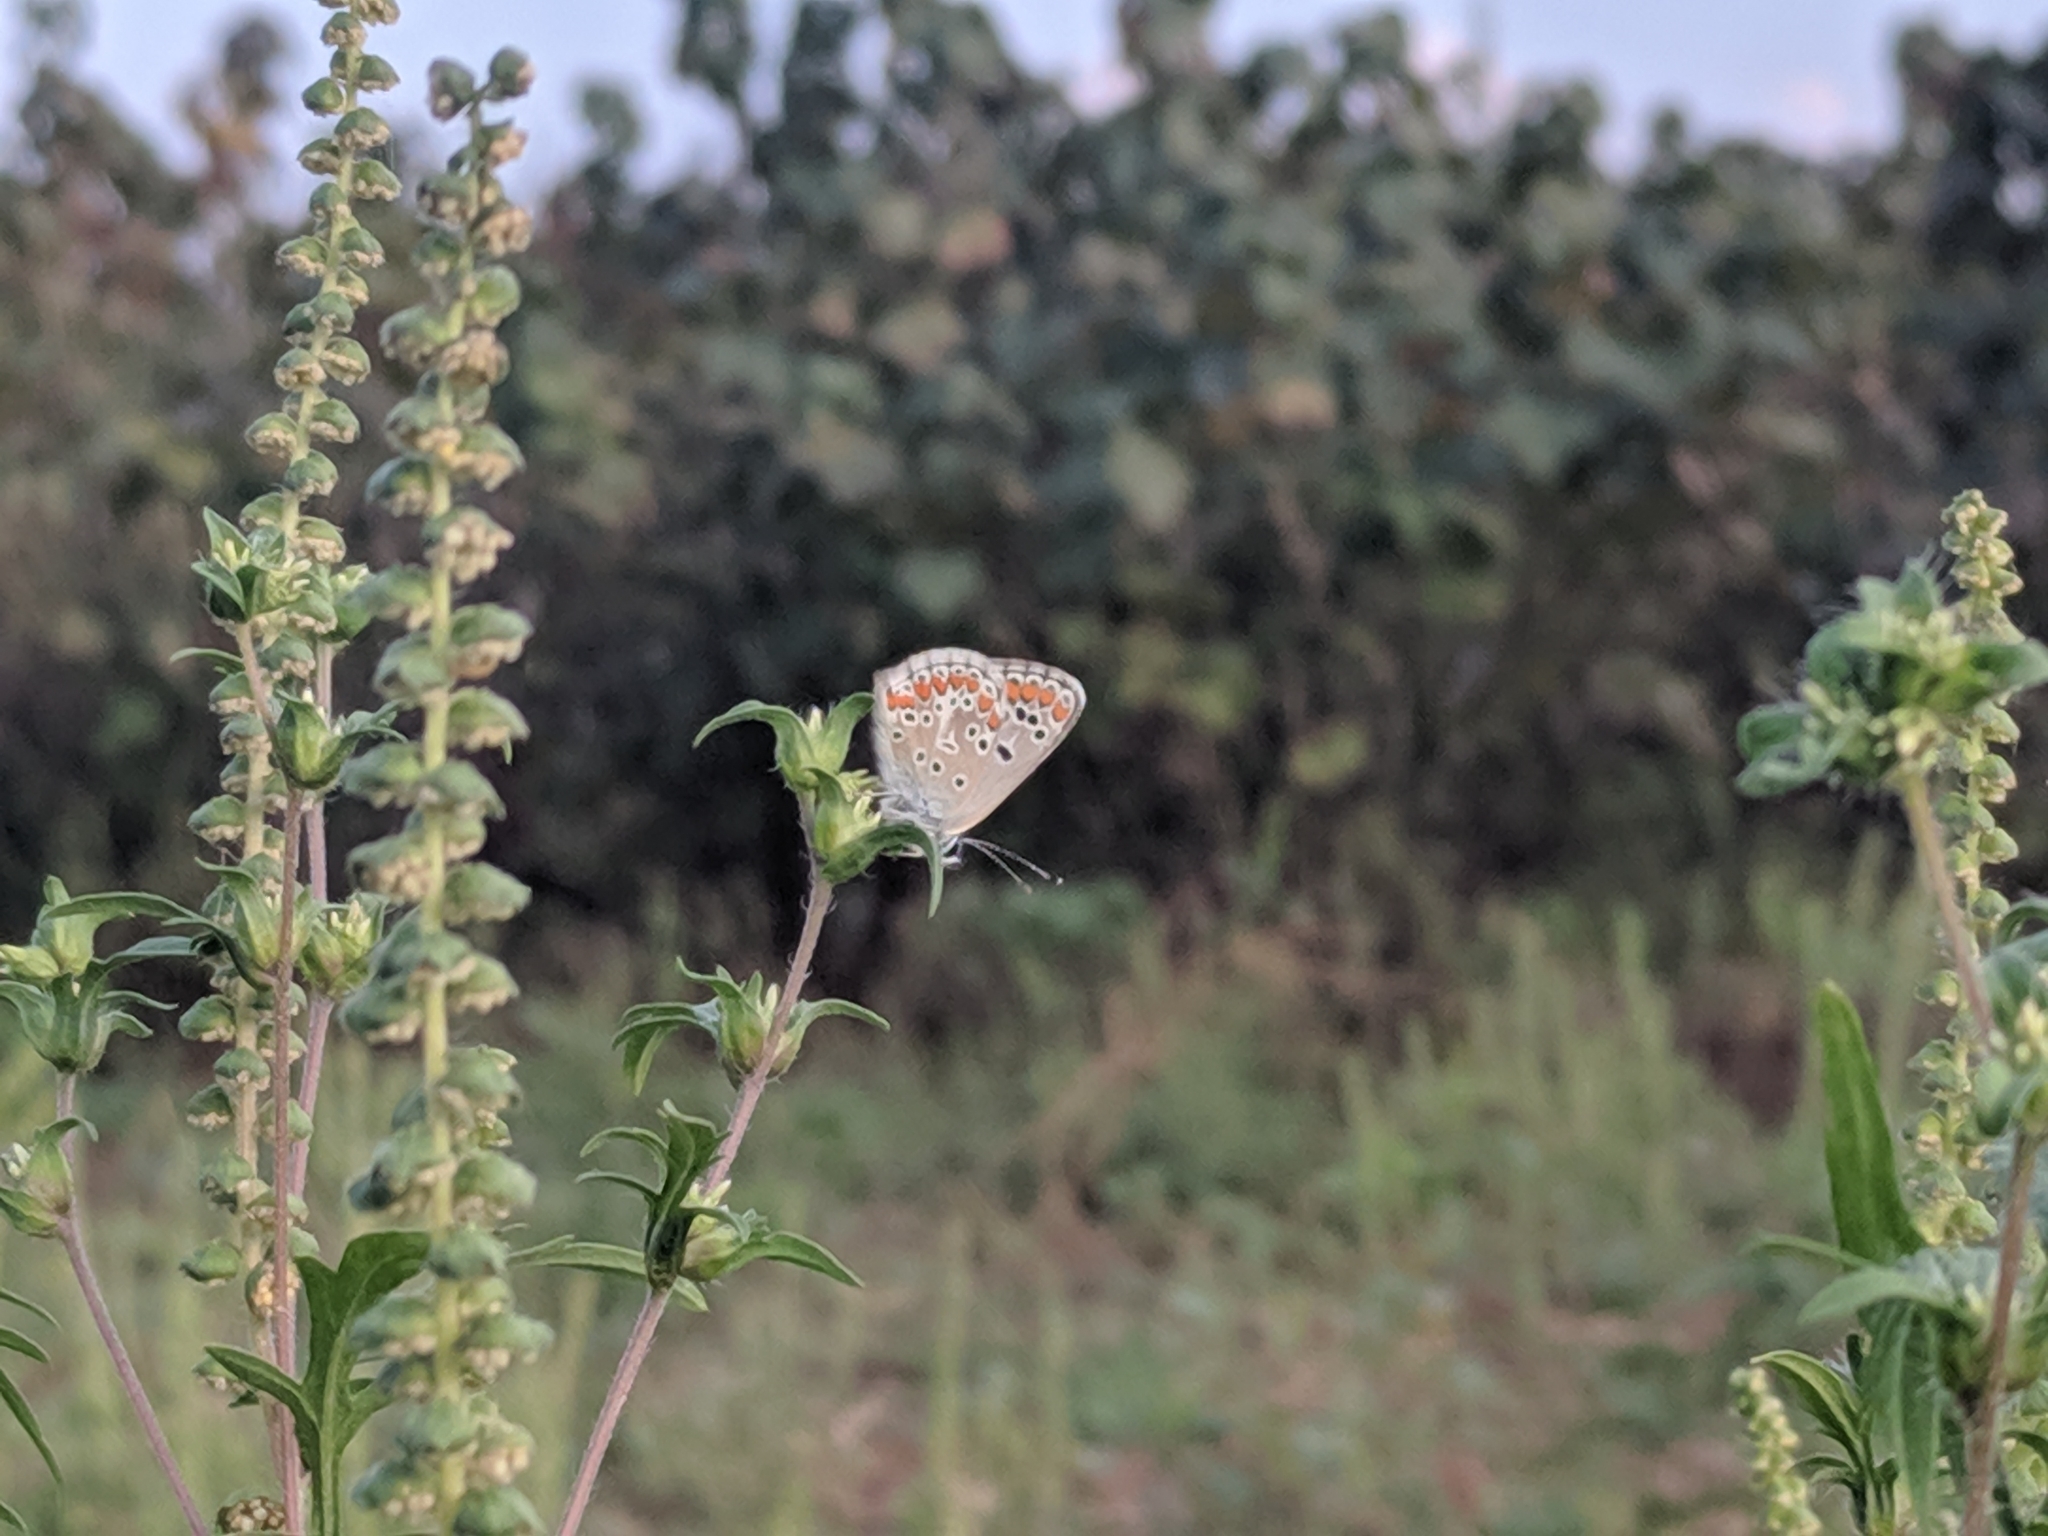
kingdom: Animalia
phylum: Arthropoda
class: Insecta
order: Lepidoptera
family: Lycaenidae
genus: Aricia
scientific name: Aricia agestis
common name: Brown argus
